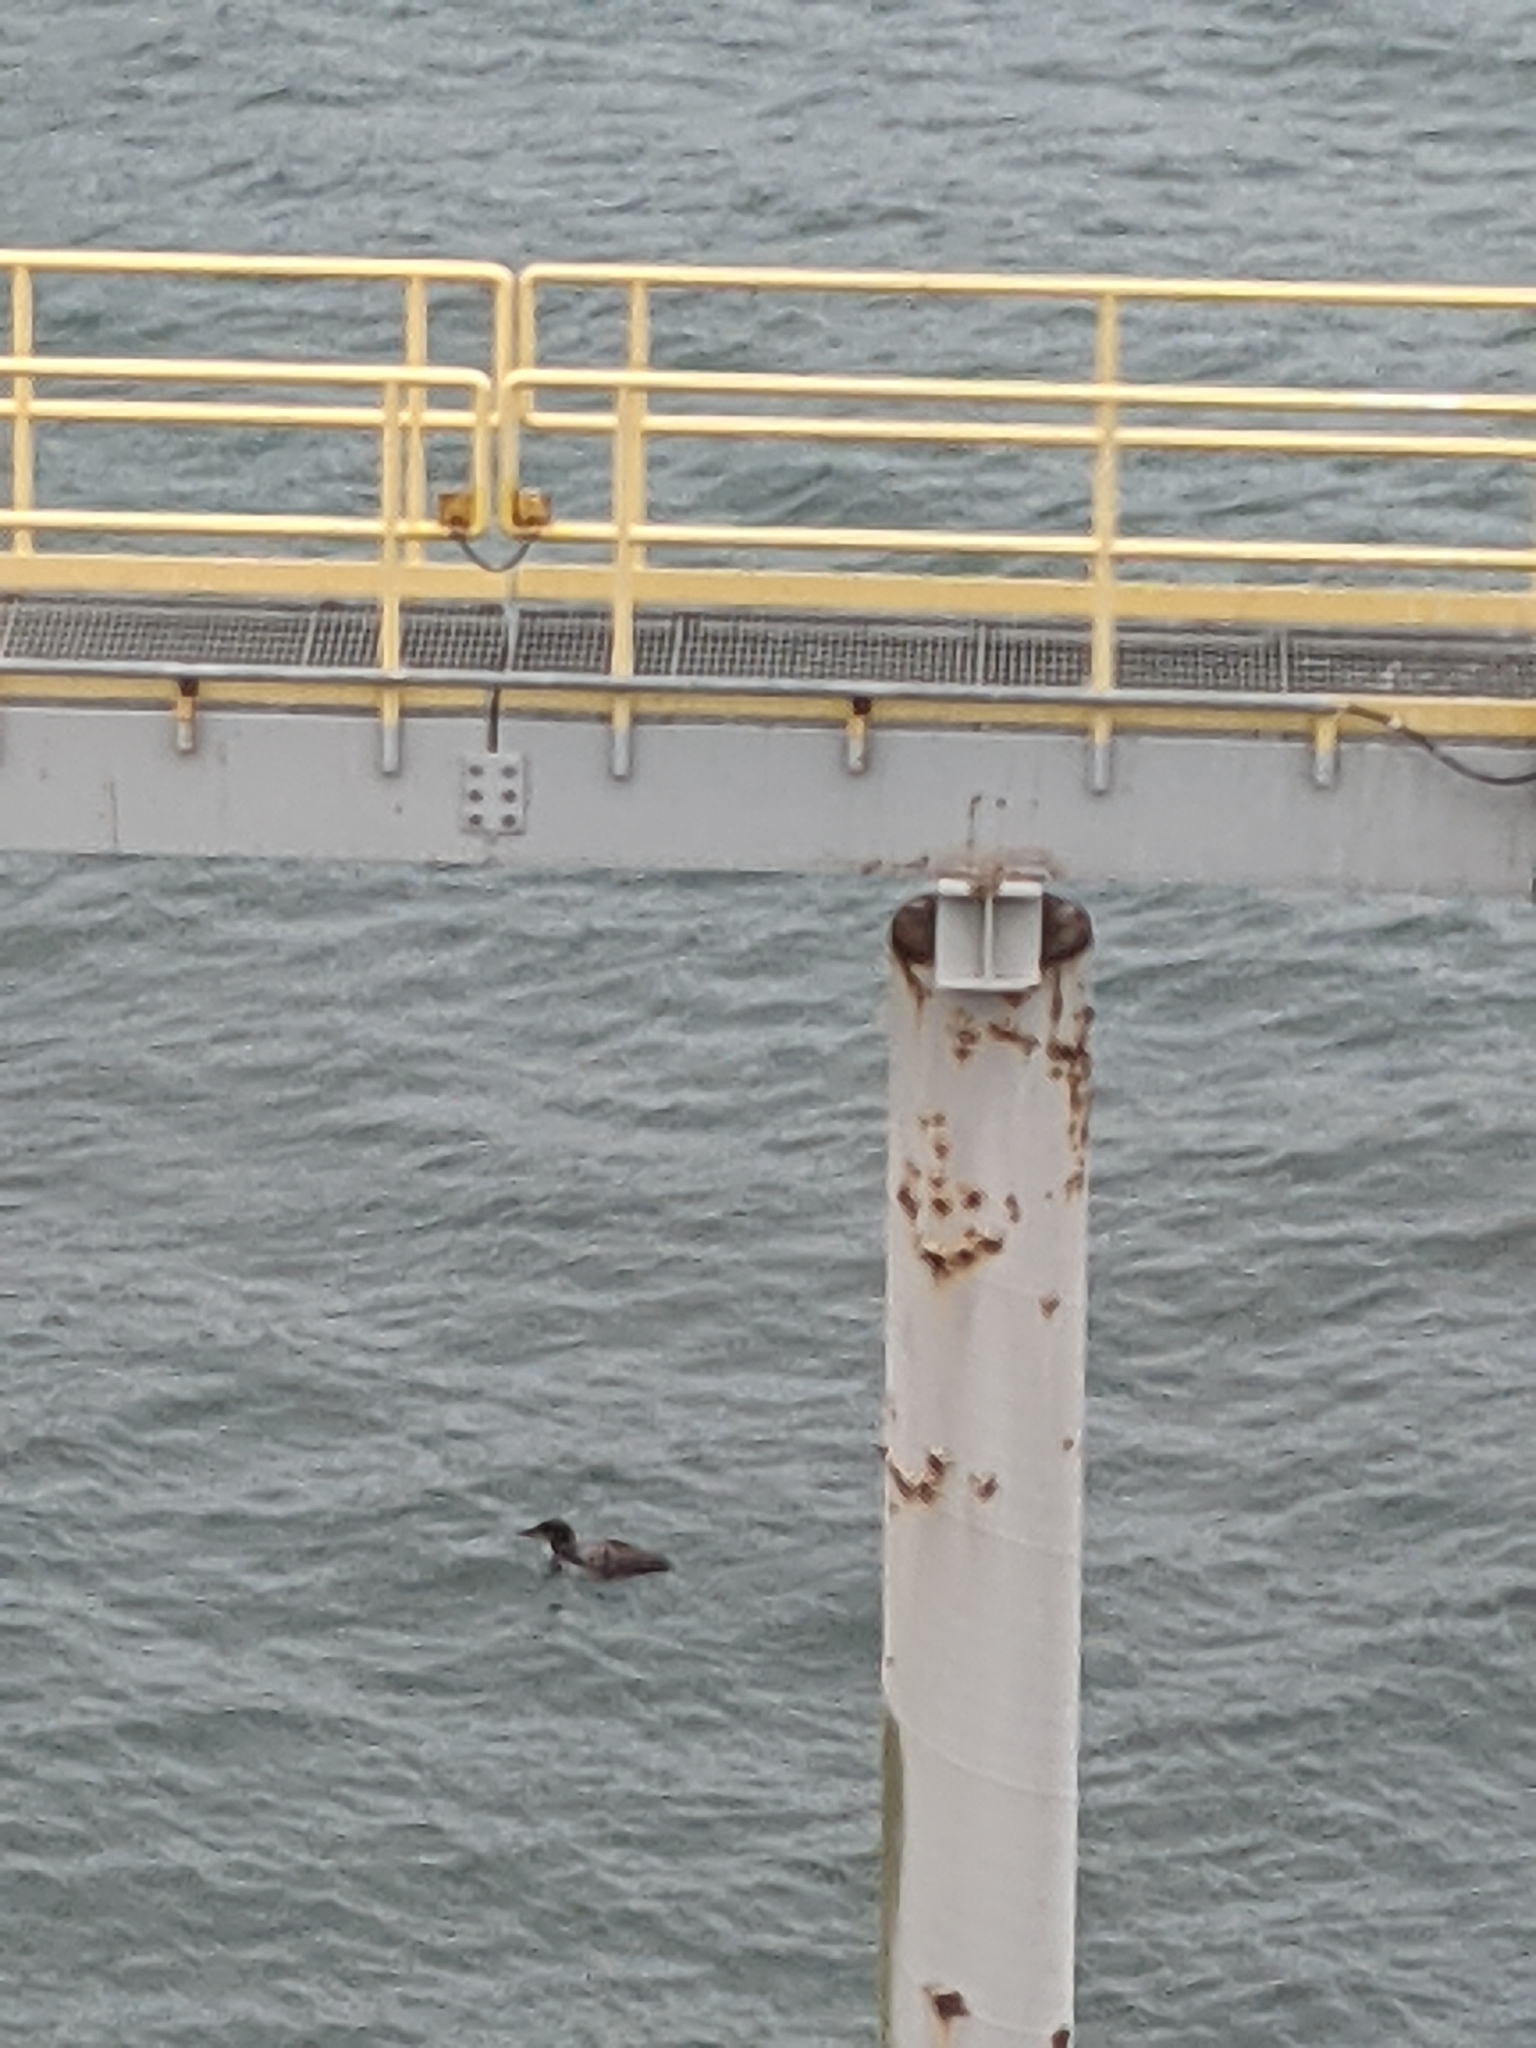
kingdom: Animalia
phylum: Chordata
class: Aves
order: Gaviiformes
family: Gaviidae
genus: Gavia
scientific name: Gavia immer
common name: Common loon
